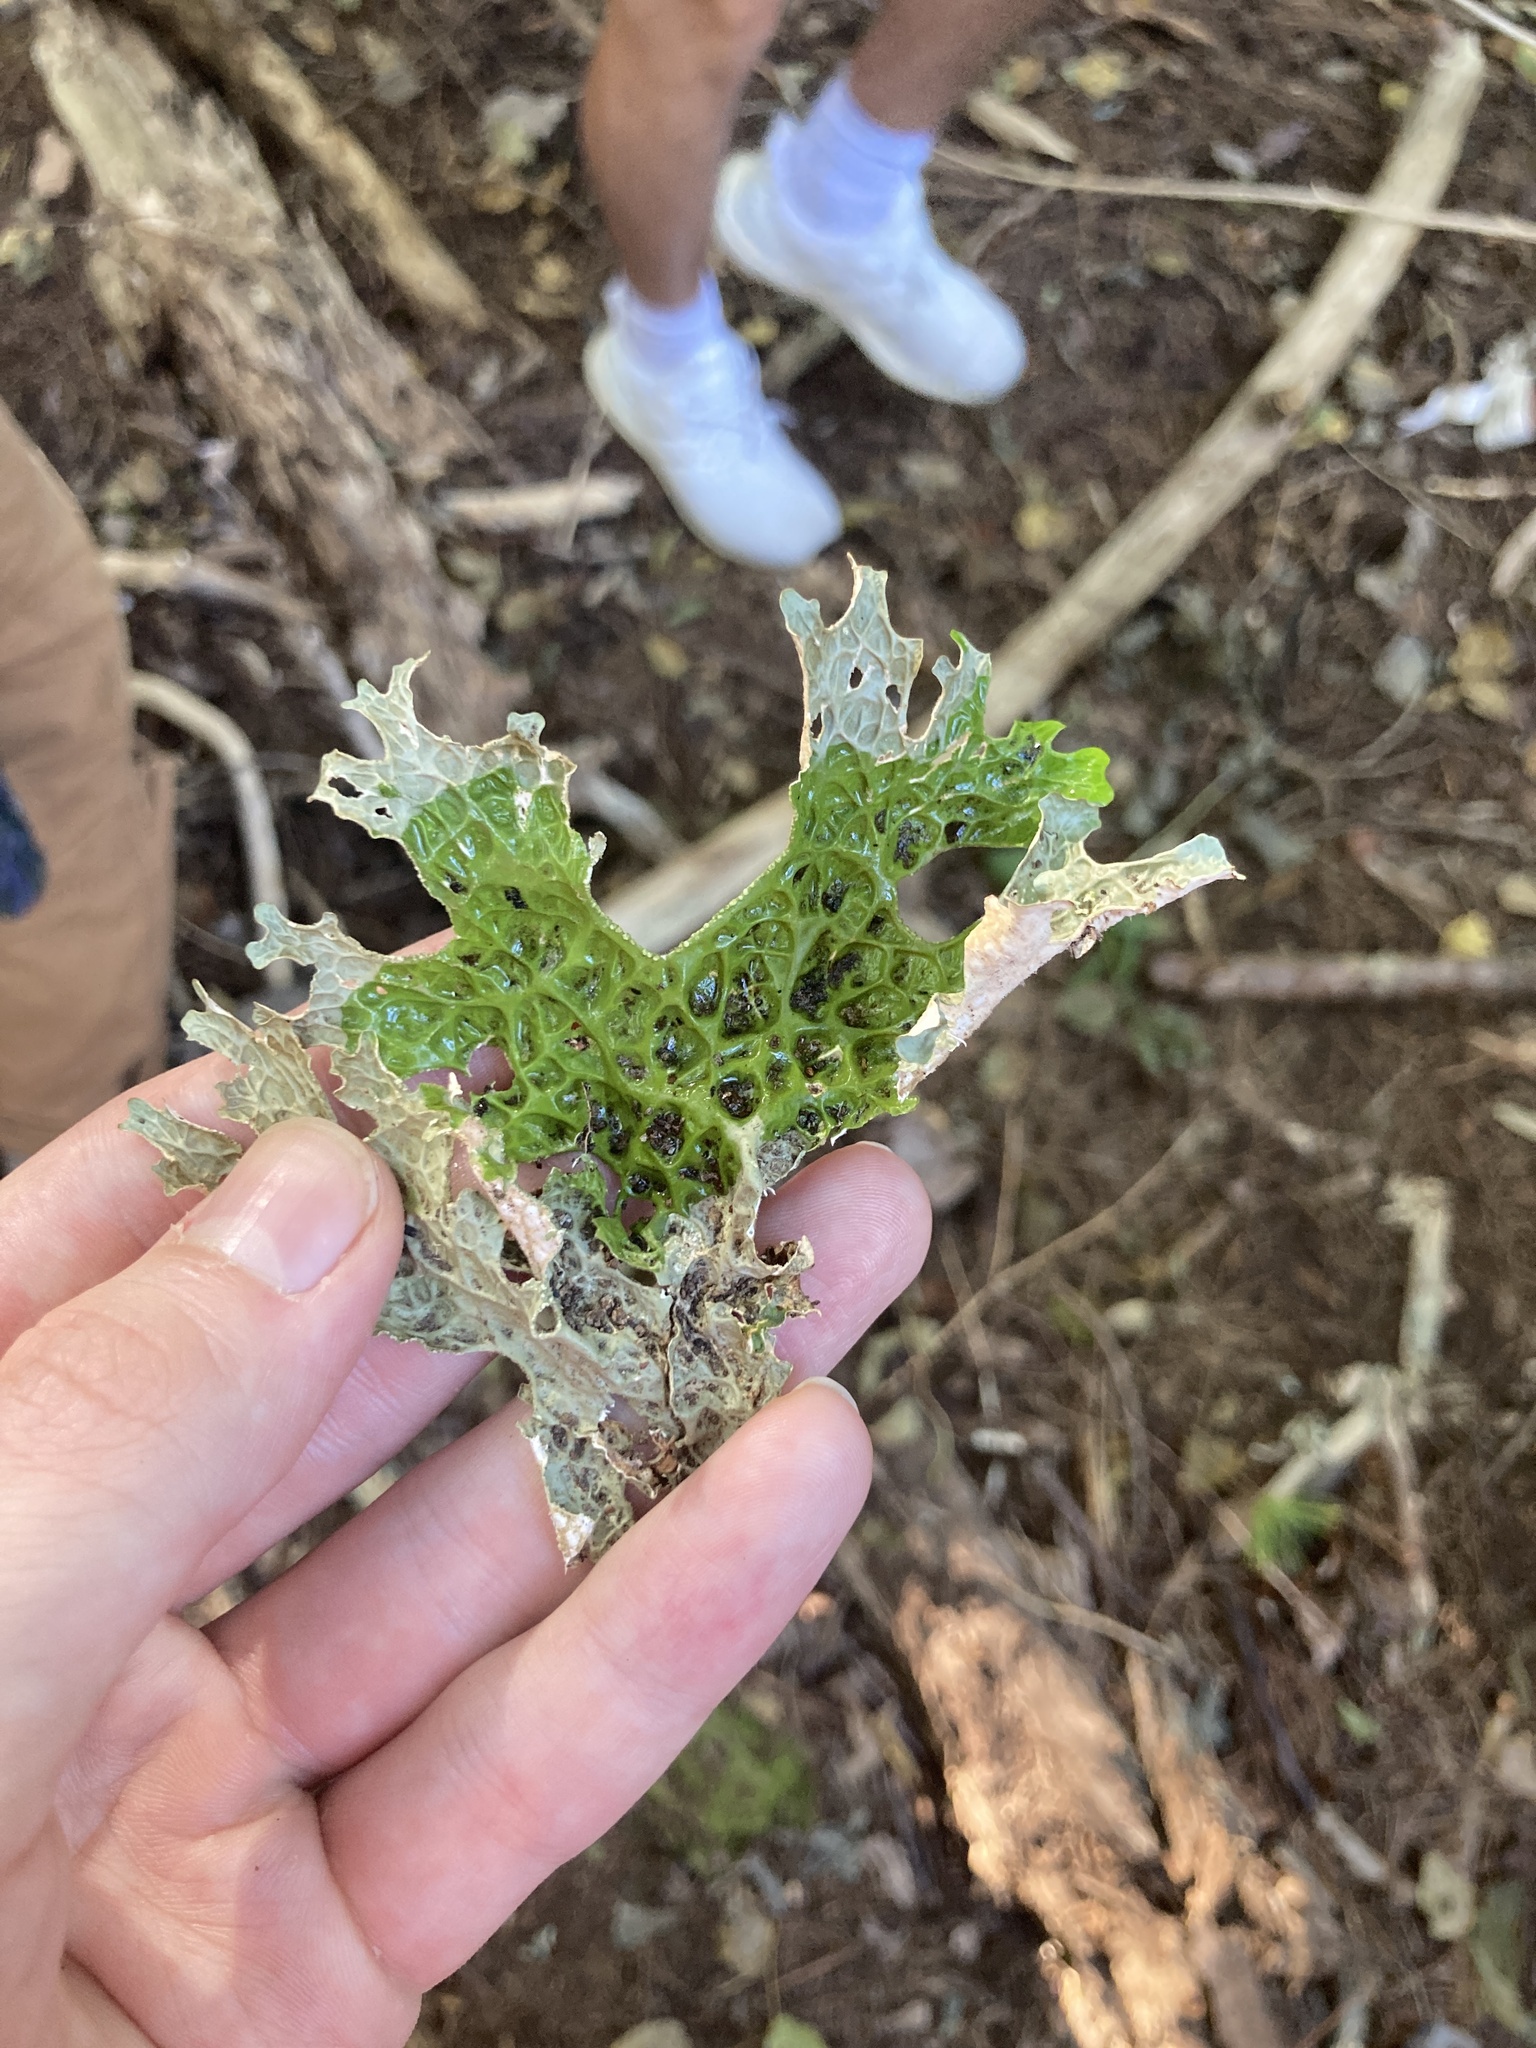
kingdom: Fungi
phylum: Ascomycota
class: Lecanoromycetes
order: Peltigerales
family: Lobariaceae
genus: Lobaria
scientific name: Lobaria pulmonaria
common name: Lungwort
